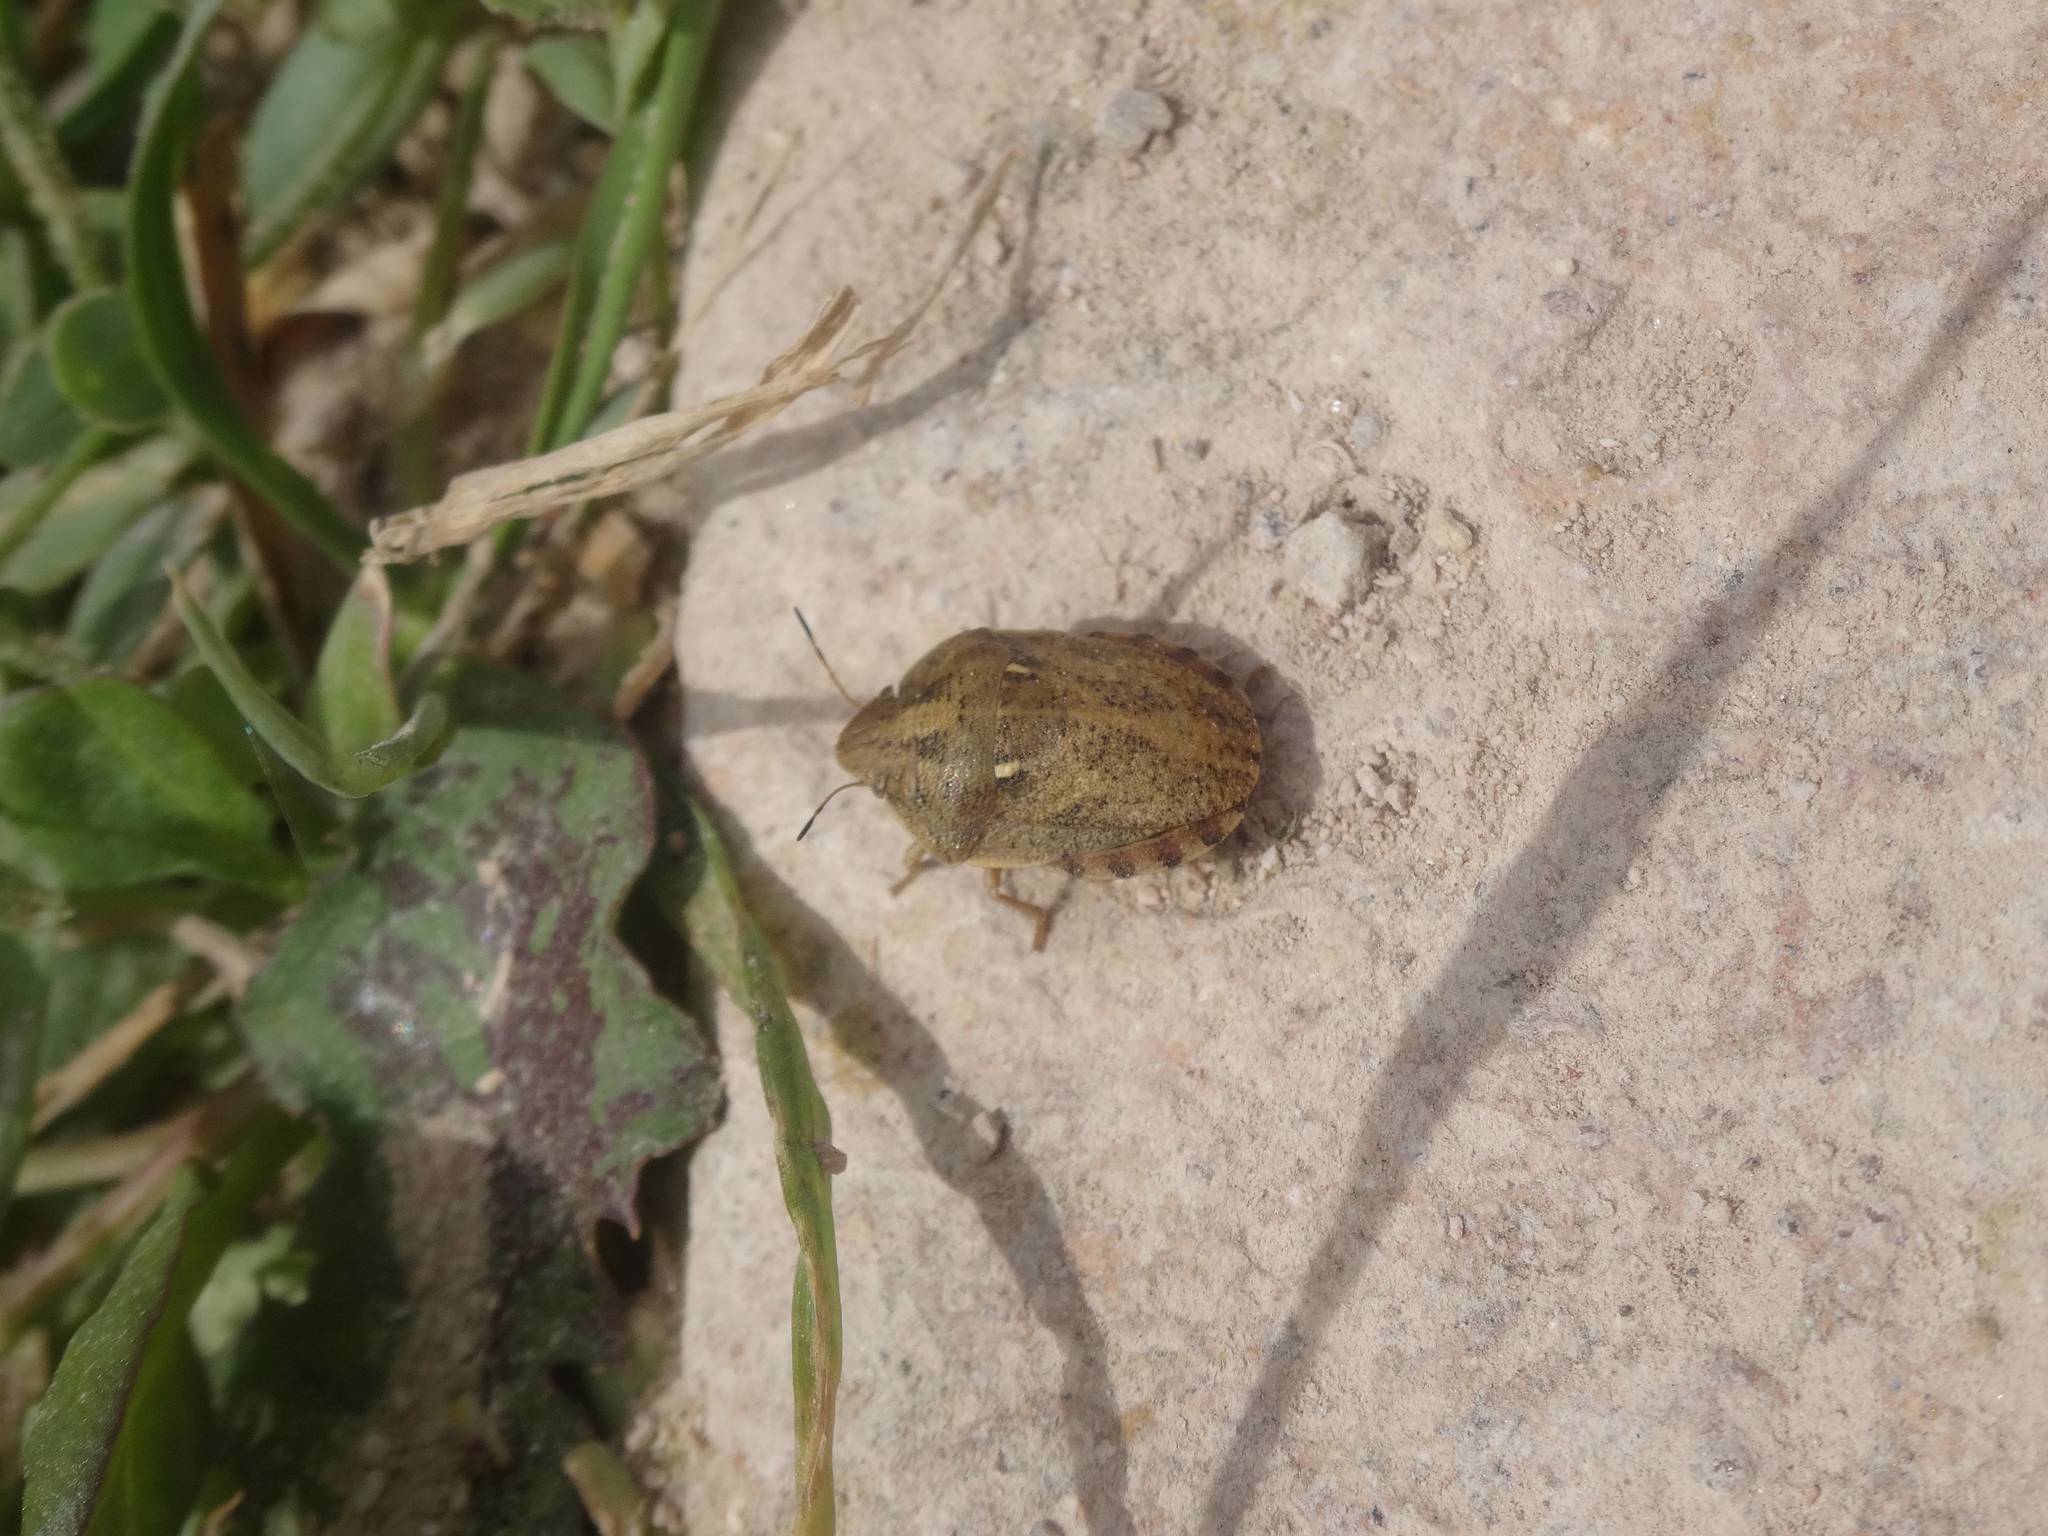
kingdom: Animalia
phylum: Arthropoda
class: Insecta
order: Hemiptera
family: Scutelleridae
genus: Eurygaster
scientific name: Eurygaster integriceps
